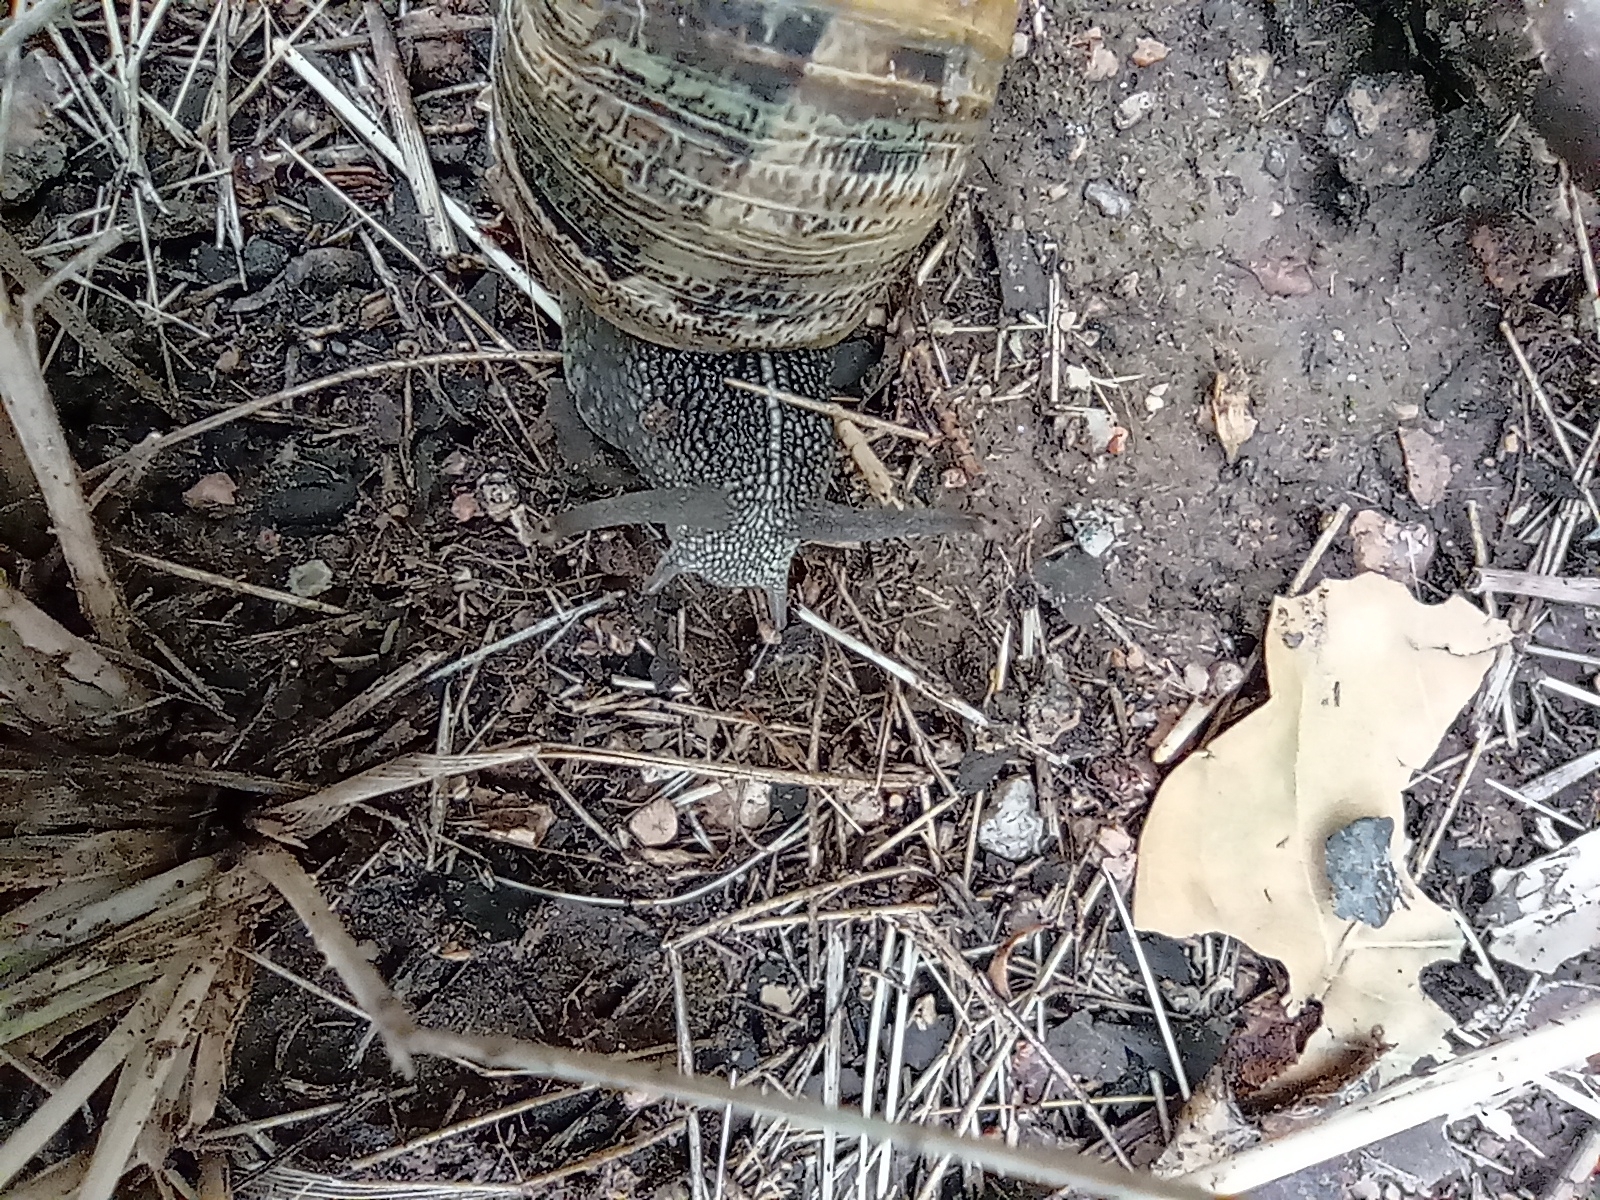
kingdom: Animalia
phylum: Mollusca
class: Gastropoda
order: Stylommatophora
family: Helicidae
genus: Cornu
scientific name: Cornu aspersum
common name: Brown garden snail
